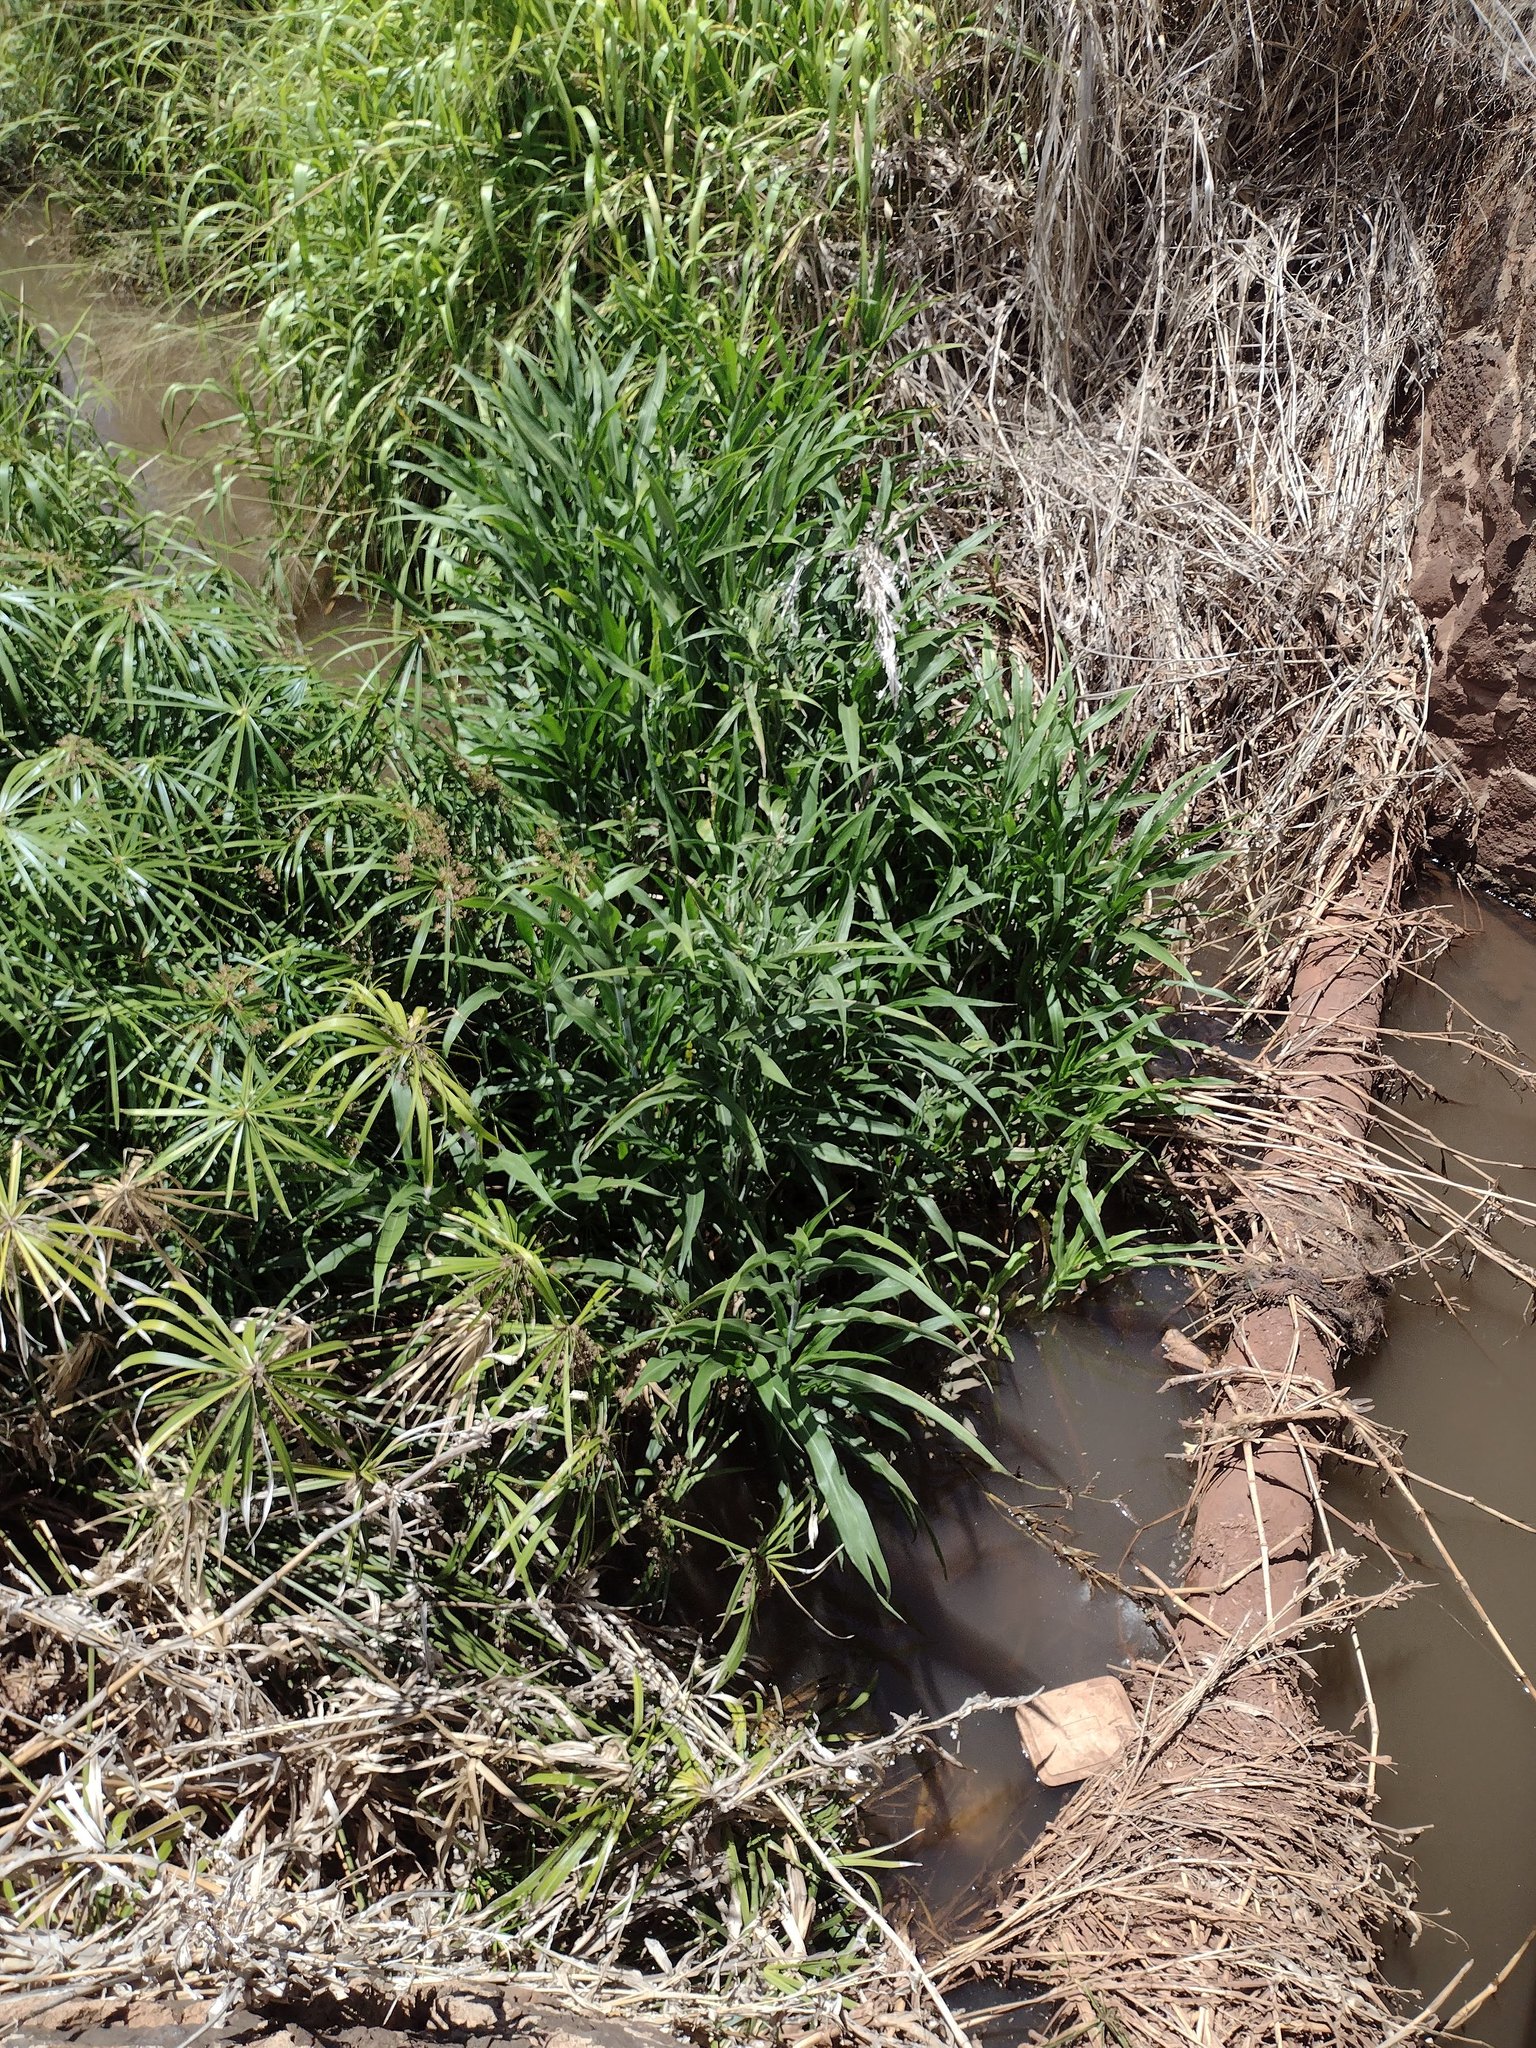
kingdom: Plantae
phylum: Tracheophyta
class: Liliopsida
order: Poales
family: Poaceae
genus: Coix
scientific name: Coix lacryma-jobi
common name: Job's tears
